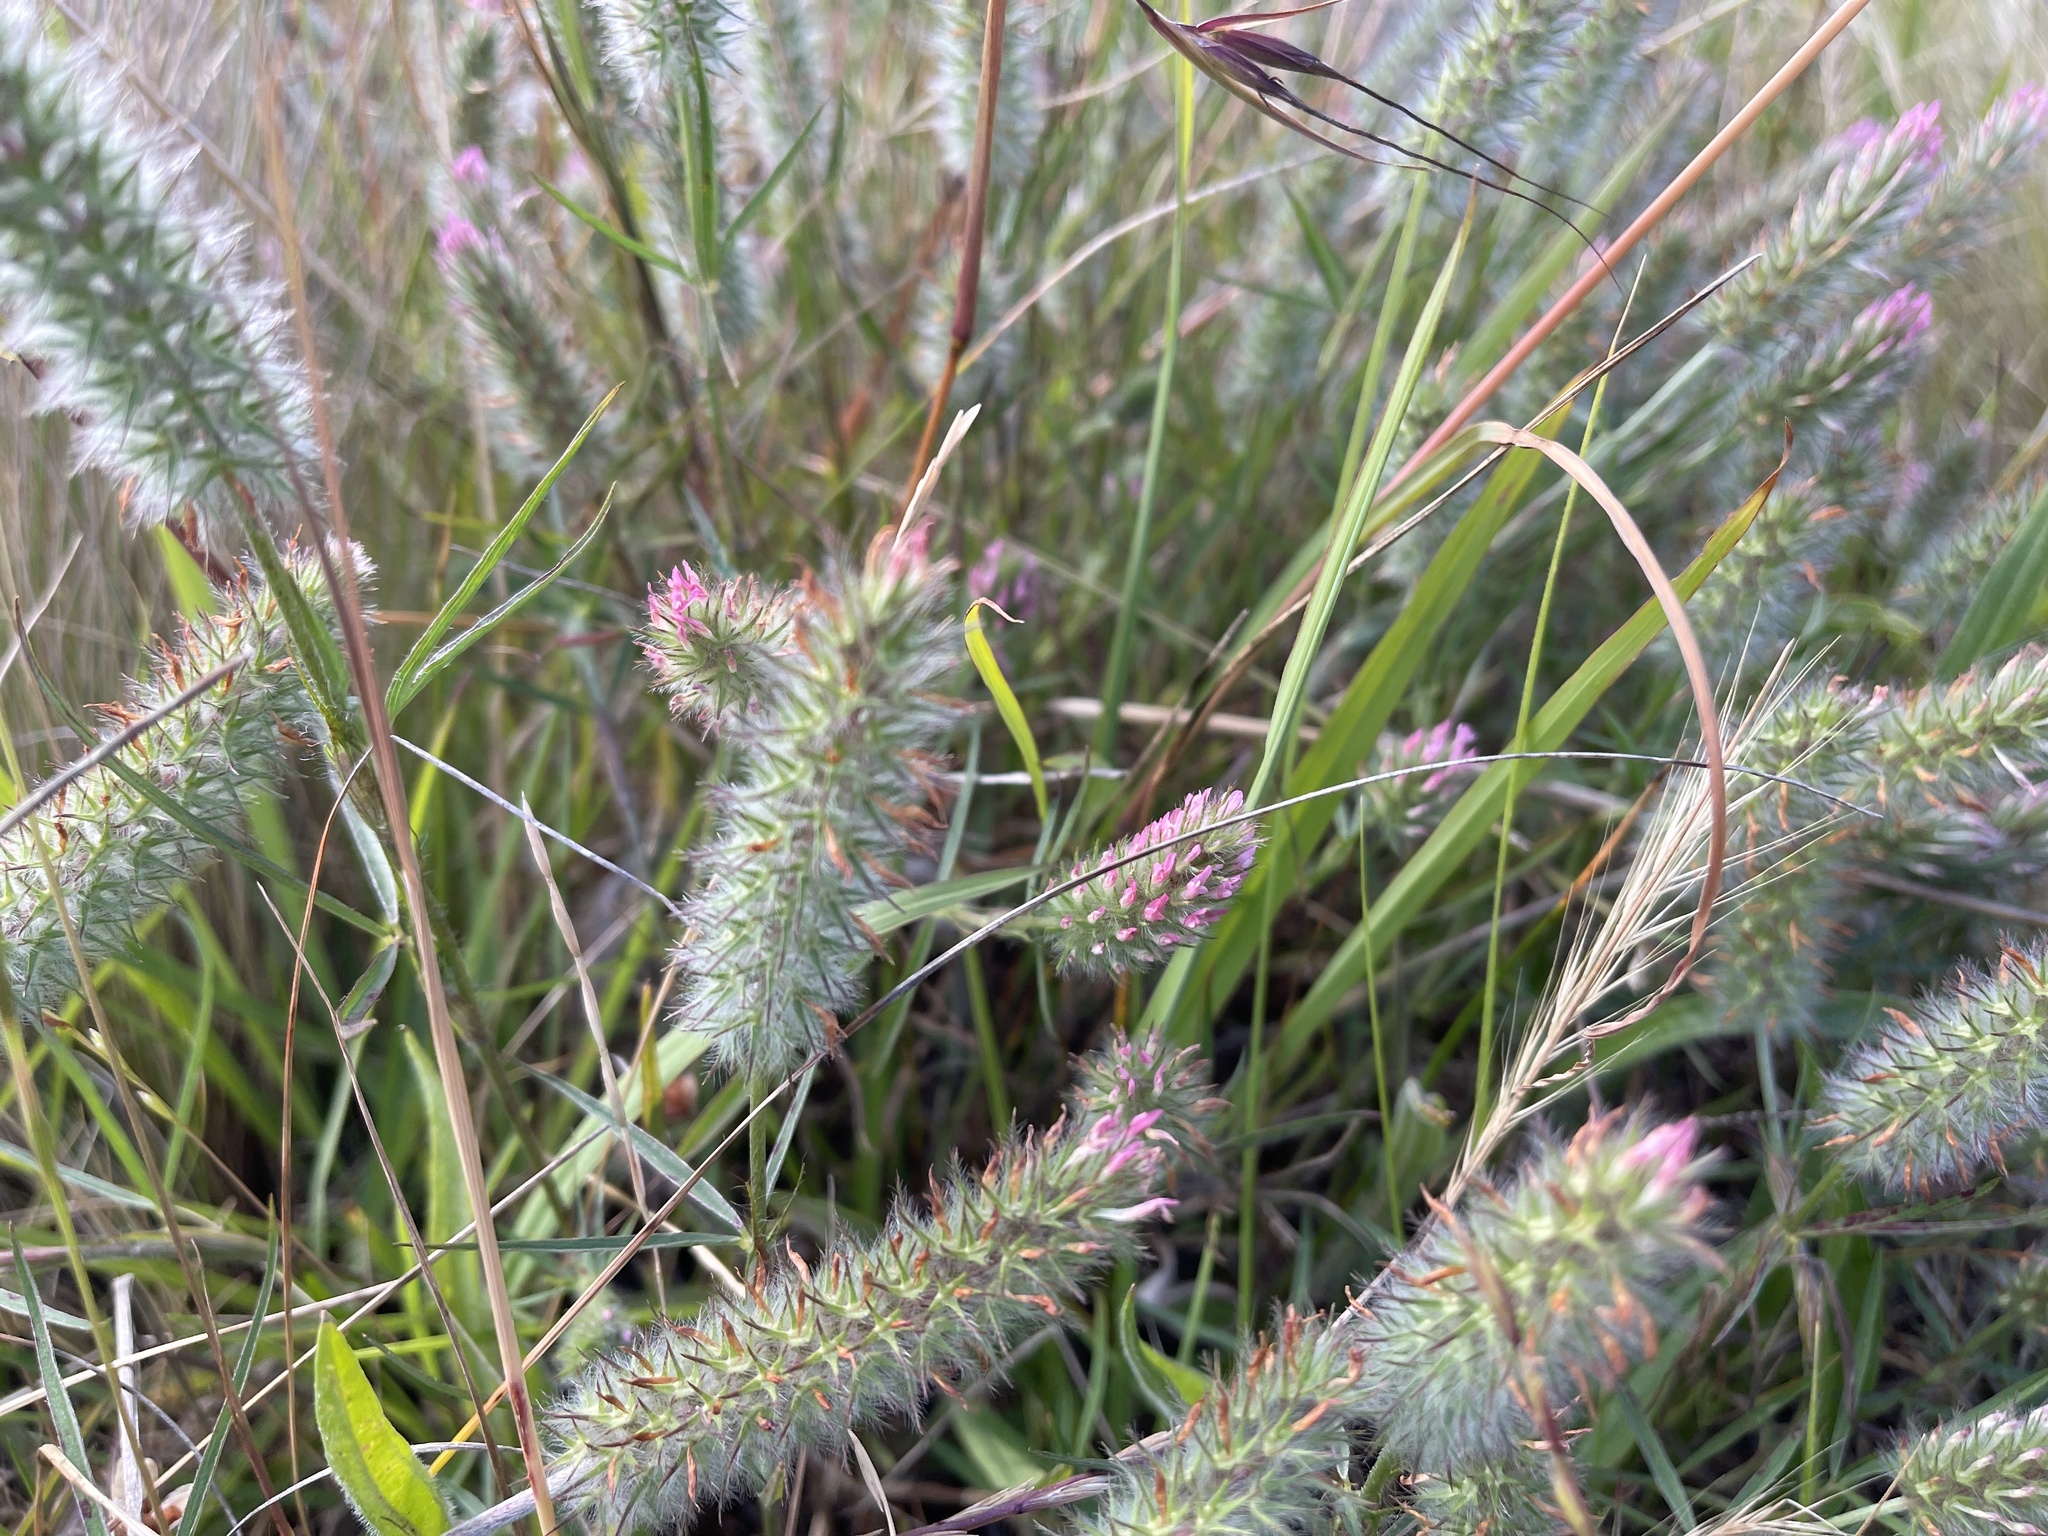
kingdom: Plantae
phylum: Tracheophyta
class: Magnoliopsida
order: Fabales
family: Fabaceae
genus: Trifolium
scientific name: Trifolium angustifolium
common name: Narrow clover
